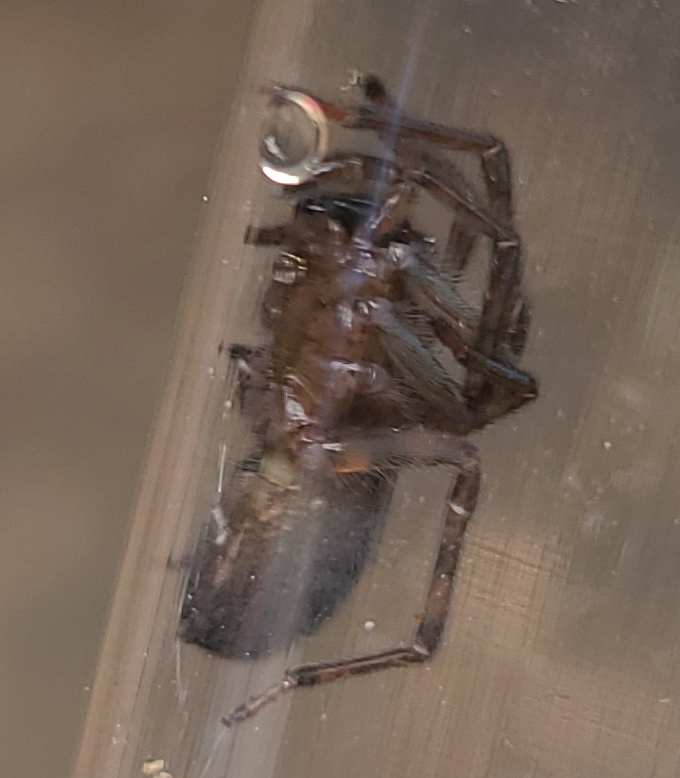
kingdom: Animalia
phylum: Arthropoda
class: Arachnida
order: Araneae
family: Amaurobiidae
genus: Amaurobius
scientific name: Amaurobius ferox
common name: Black laceweaver
